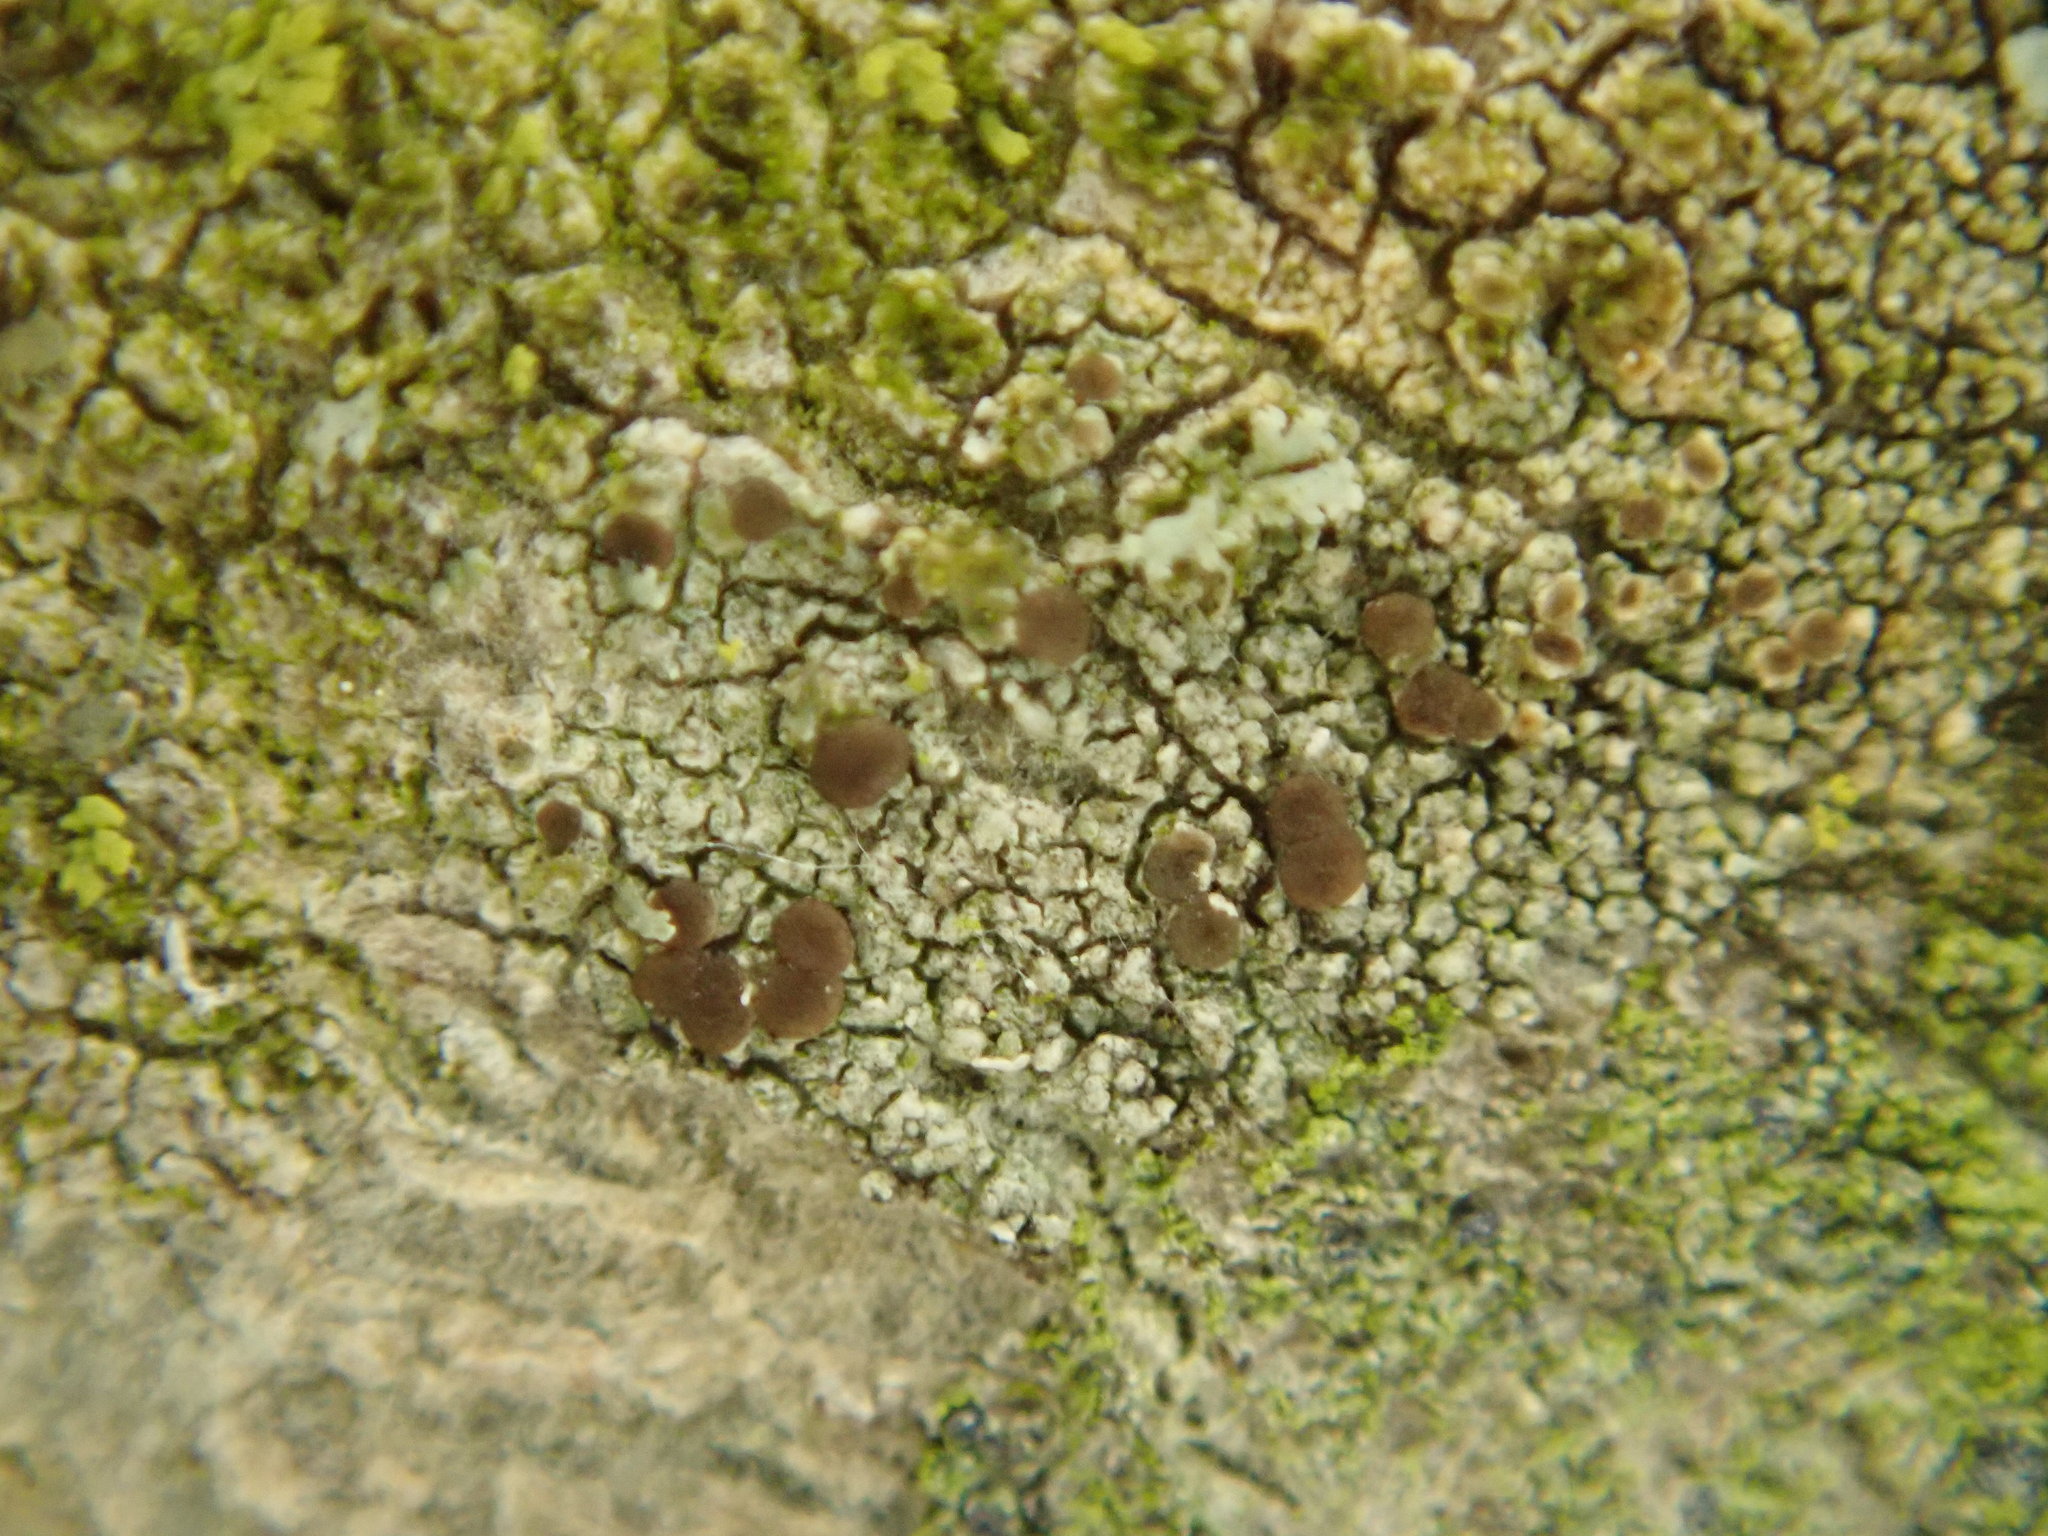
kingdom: Fungi
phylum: Ascomycota
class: Lecanoromycetes
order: Lecanorales
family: Lecanoraceae
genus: Traponora
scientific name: Traponora varians
